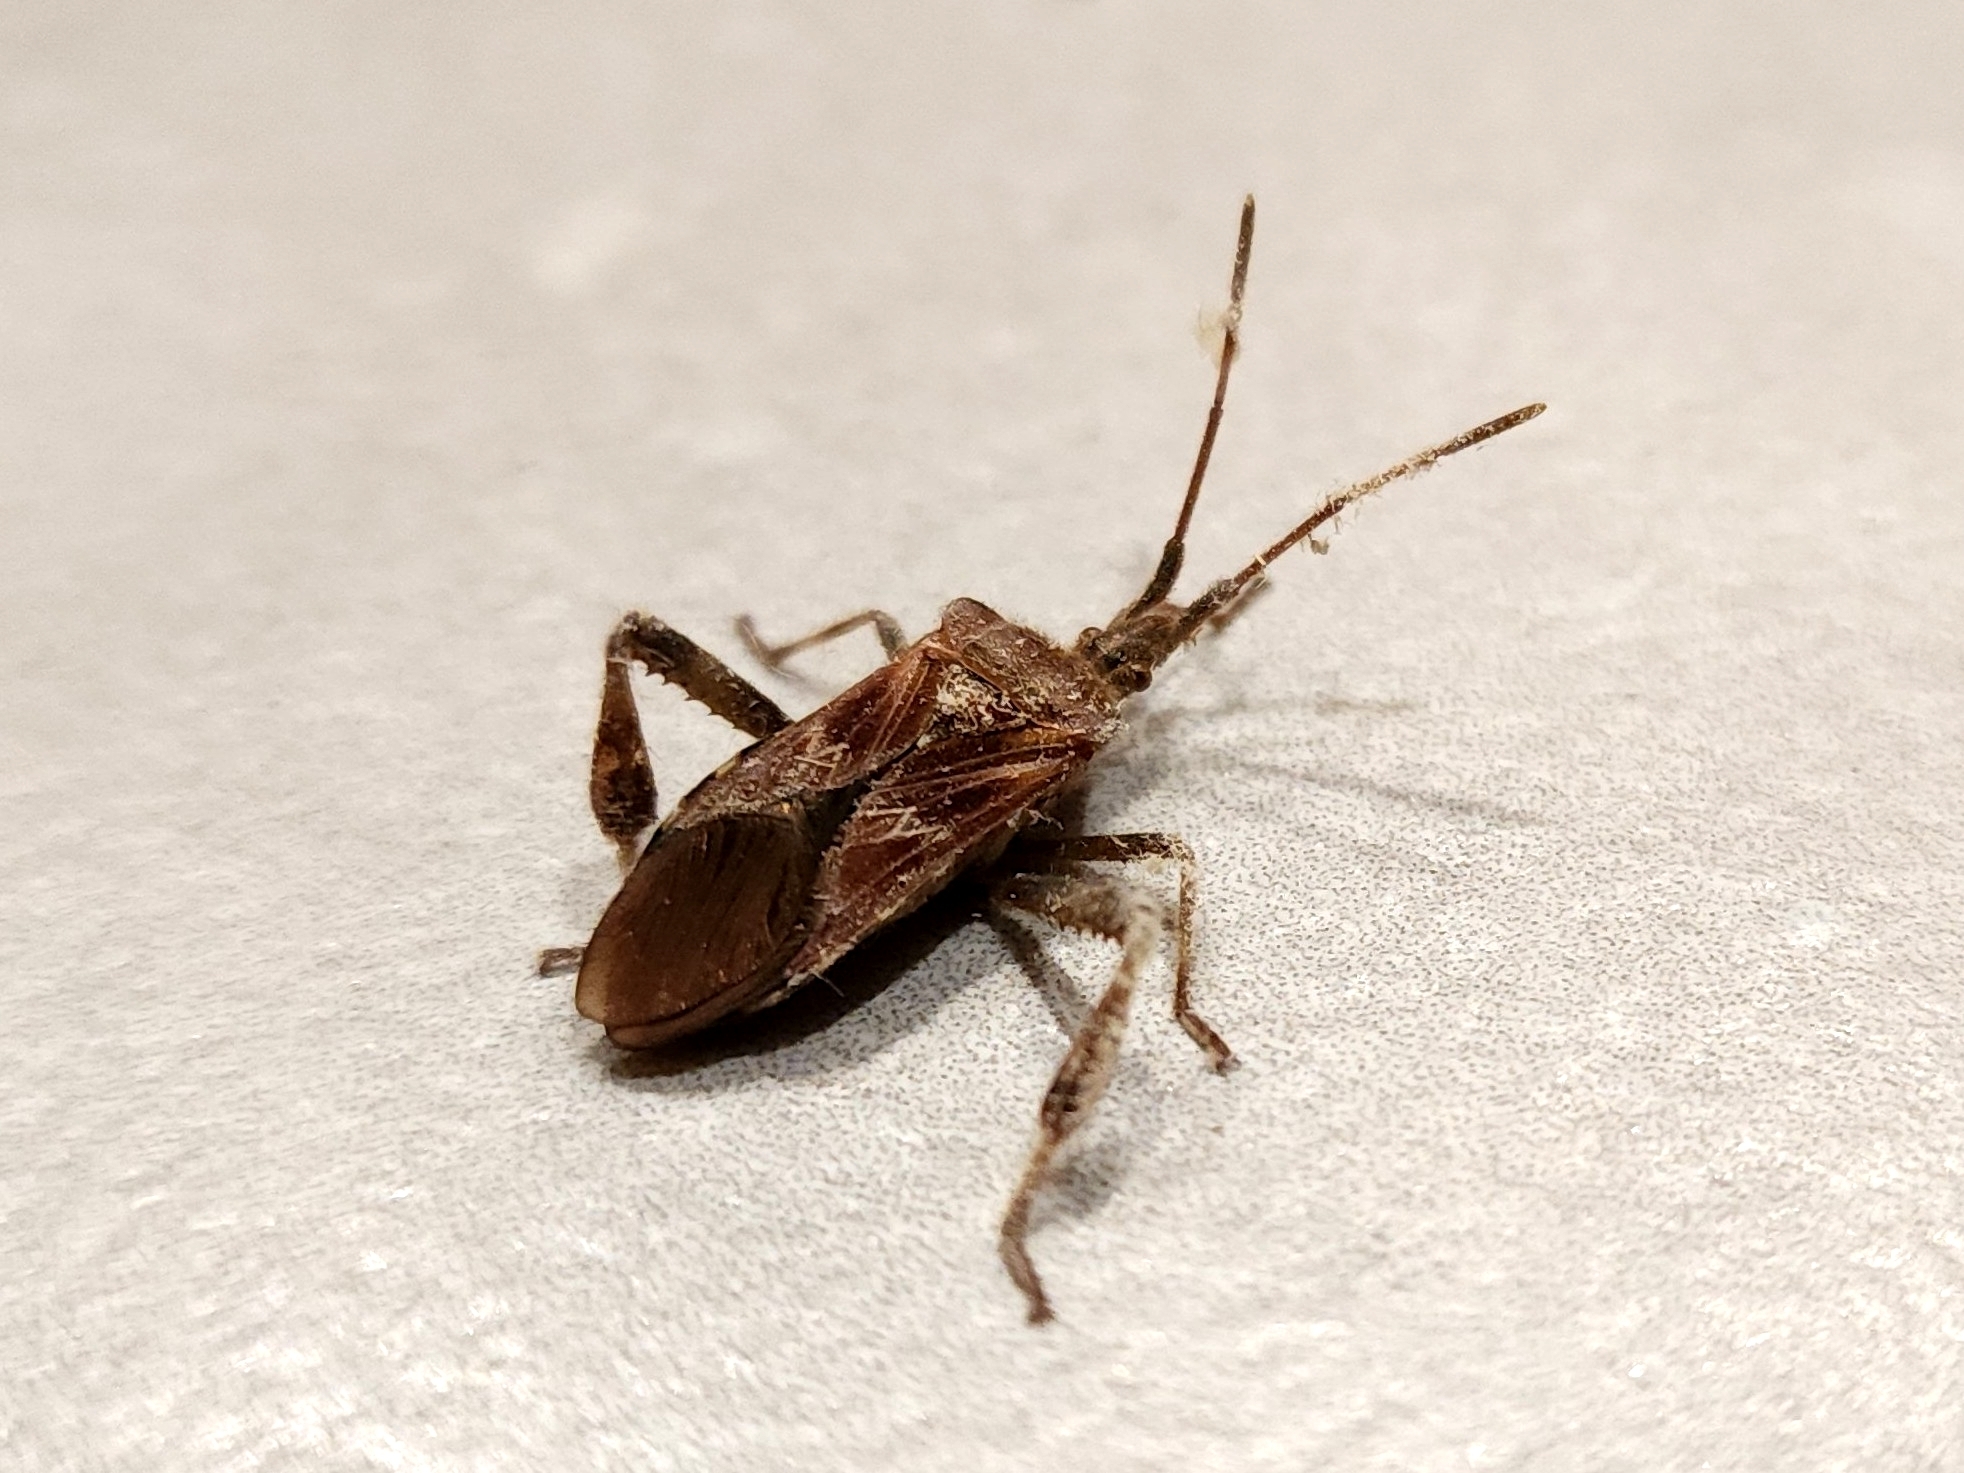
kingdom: Animalia
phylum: Arthropoda
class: Insecta
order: Hemiptera
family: Coreidae
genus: Leptoglossus
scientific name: Leptoglossus occidentalis
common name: Western conifer-seed bug
